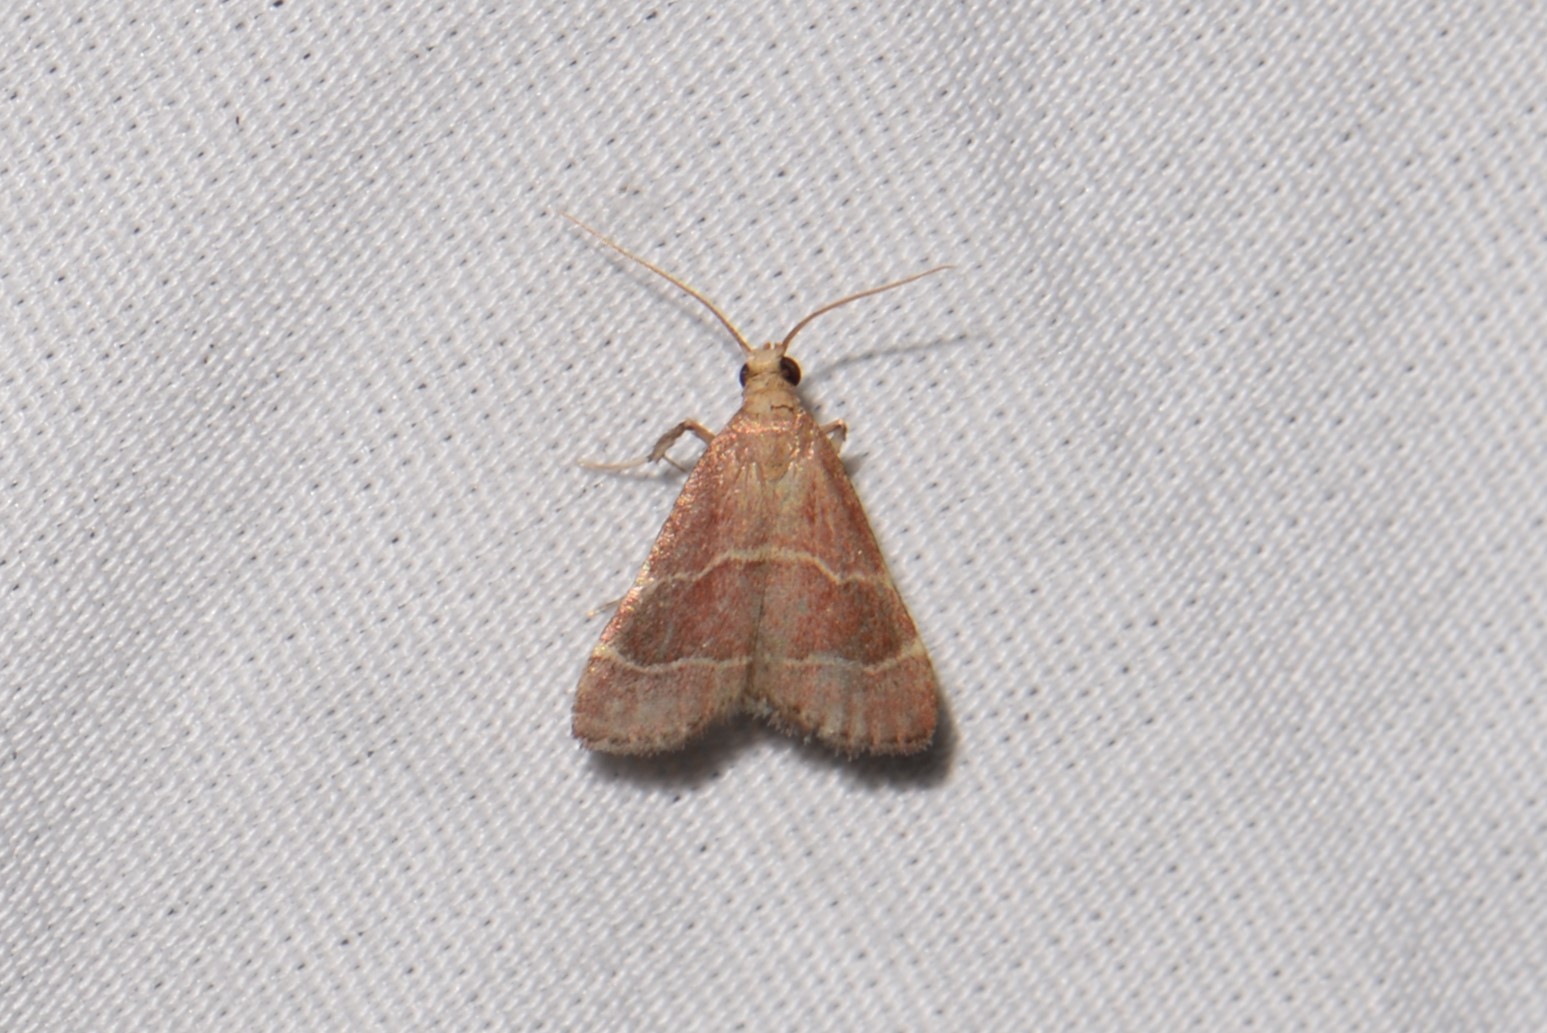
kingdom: Animalia
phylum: Arthropoda
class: Insecta
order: Lepidoptera
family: Pyralidae
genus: Arta
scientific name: Arta statalis
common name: Posturing arta moth
